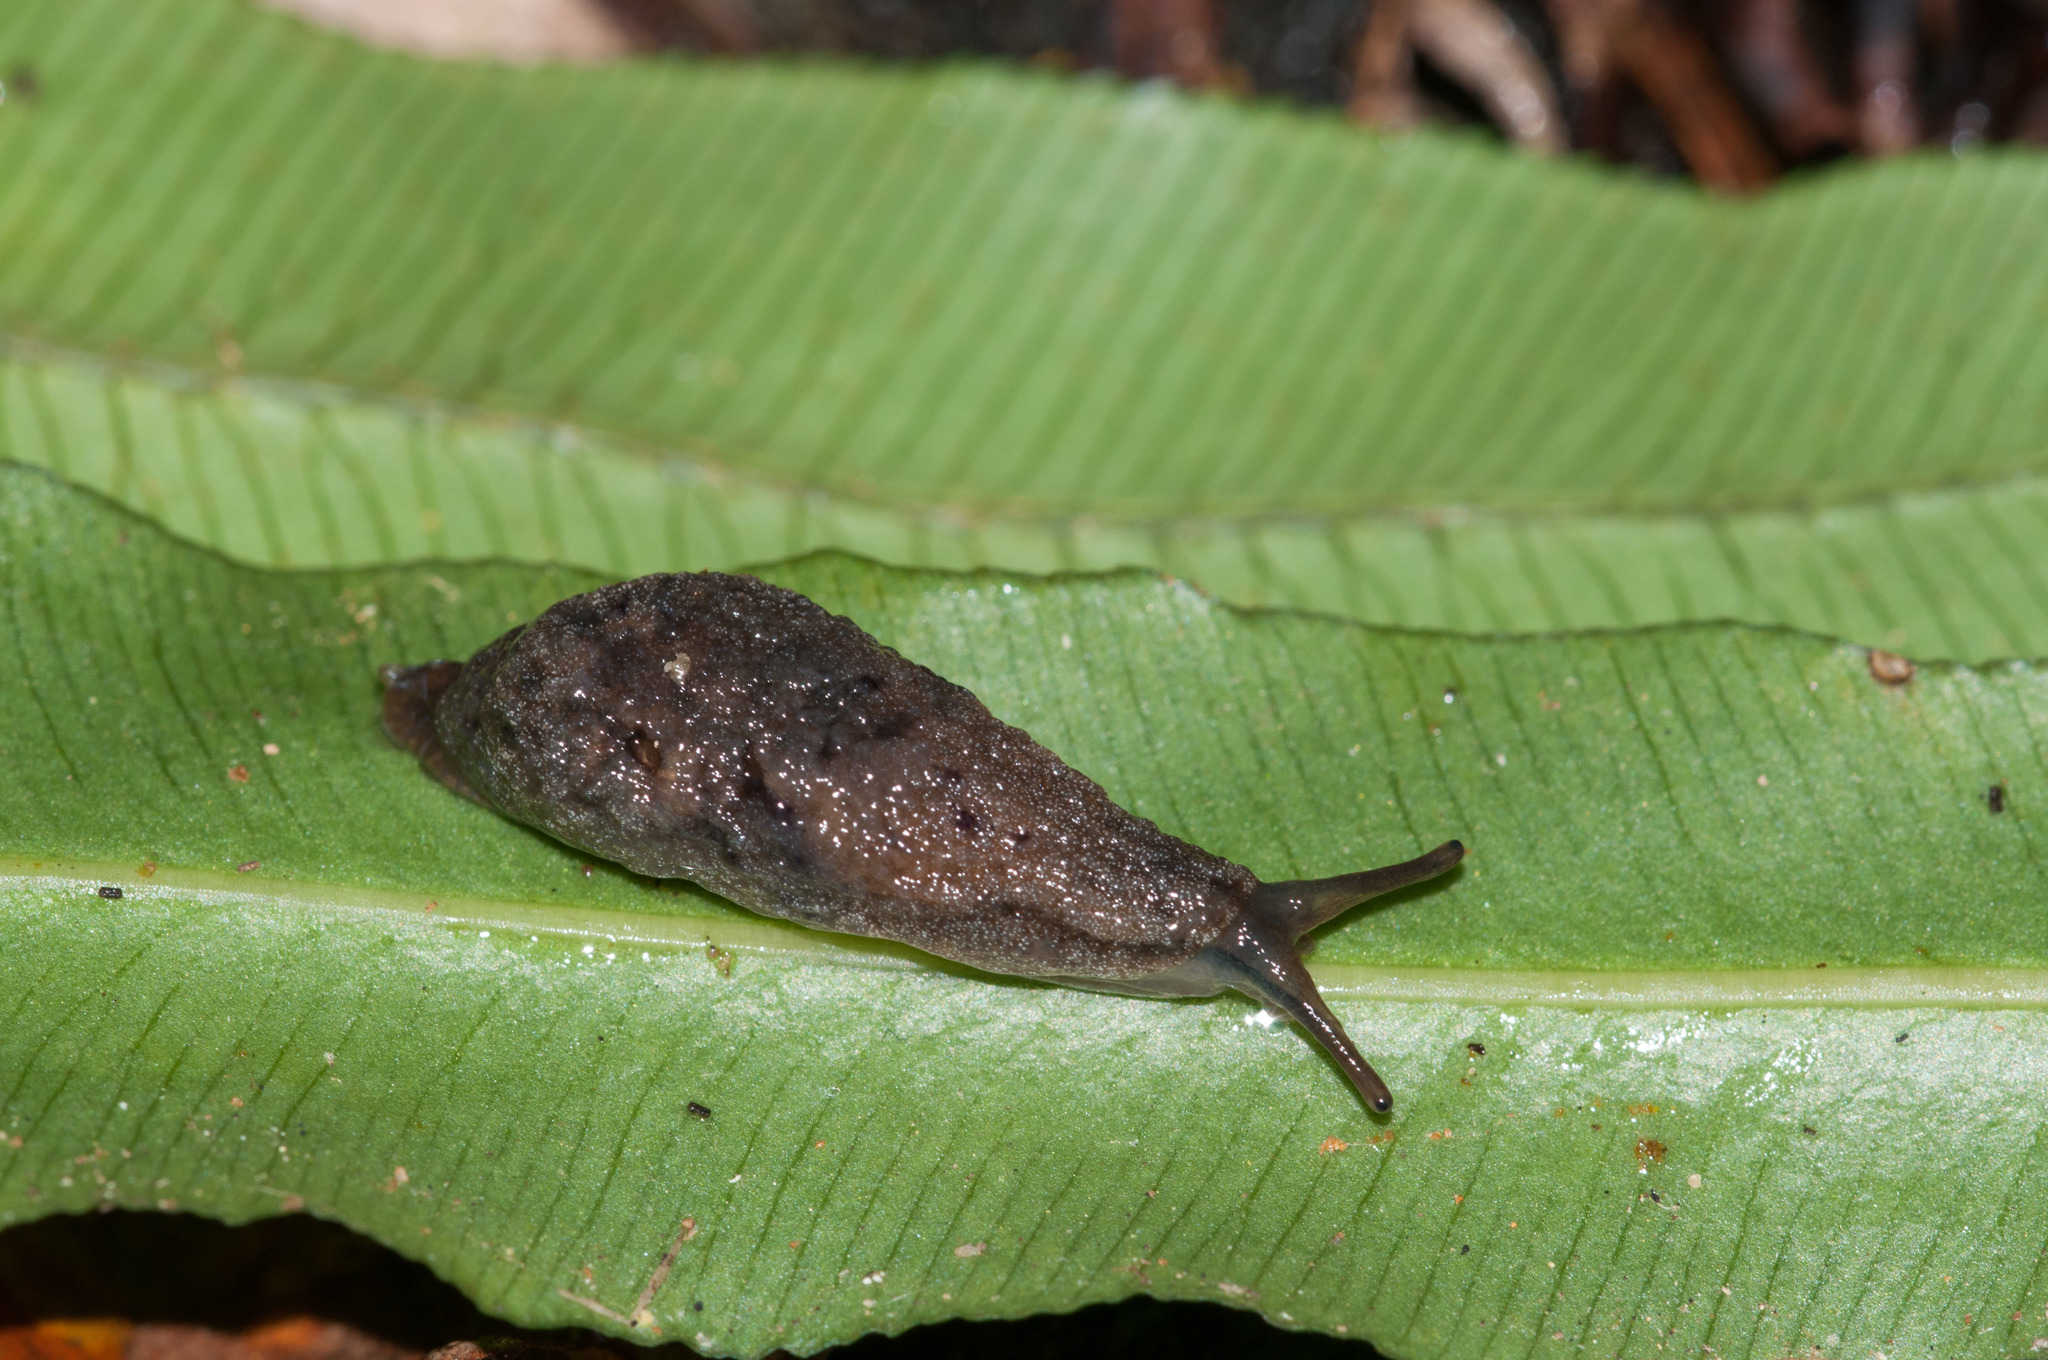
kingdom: Animalia
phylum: Mollusca
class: Gastropoda
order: Stylommatophora
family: Cystopeltidae
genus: Cystopelta
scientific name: Cystopelta purpurea
